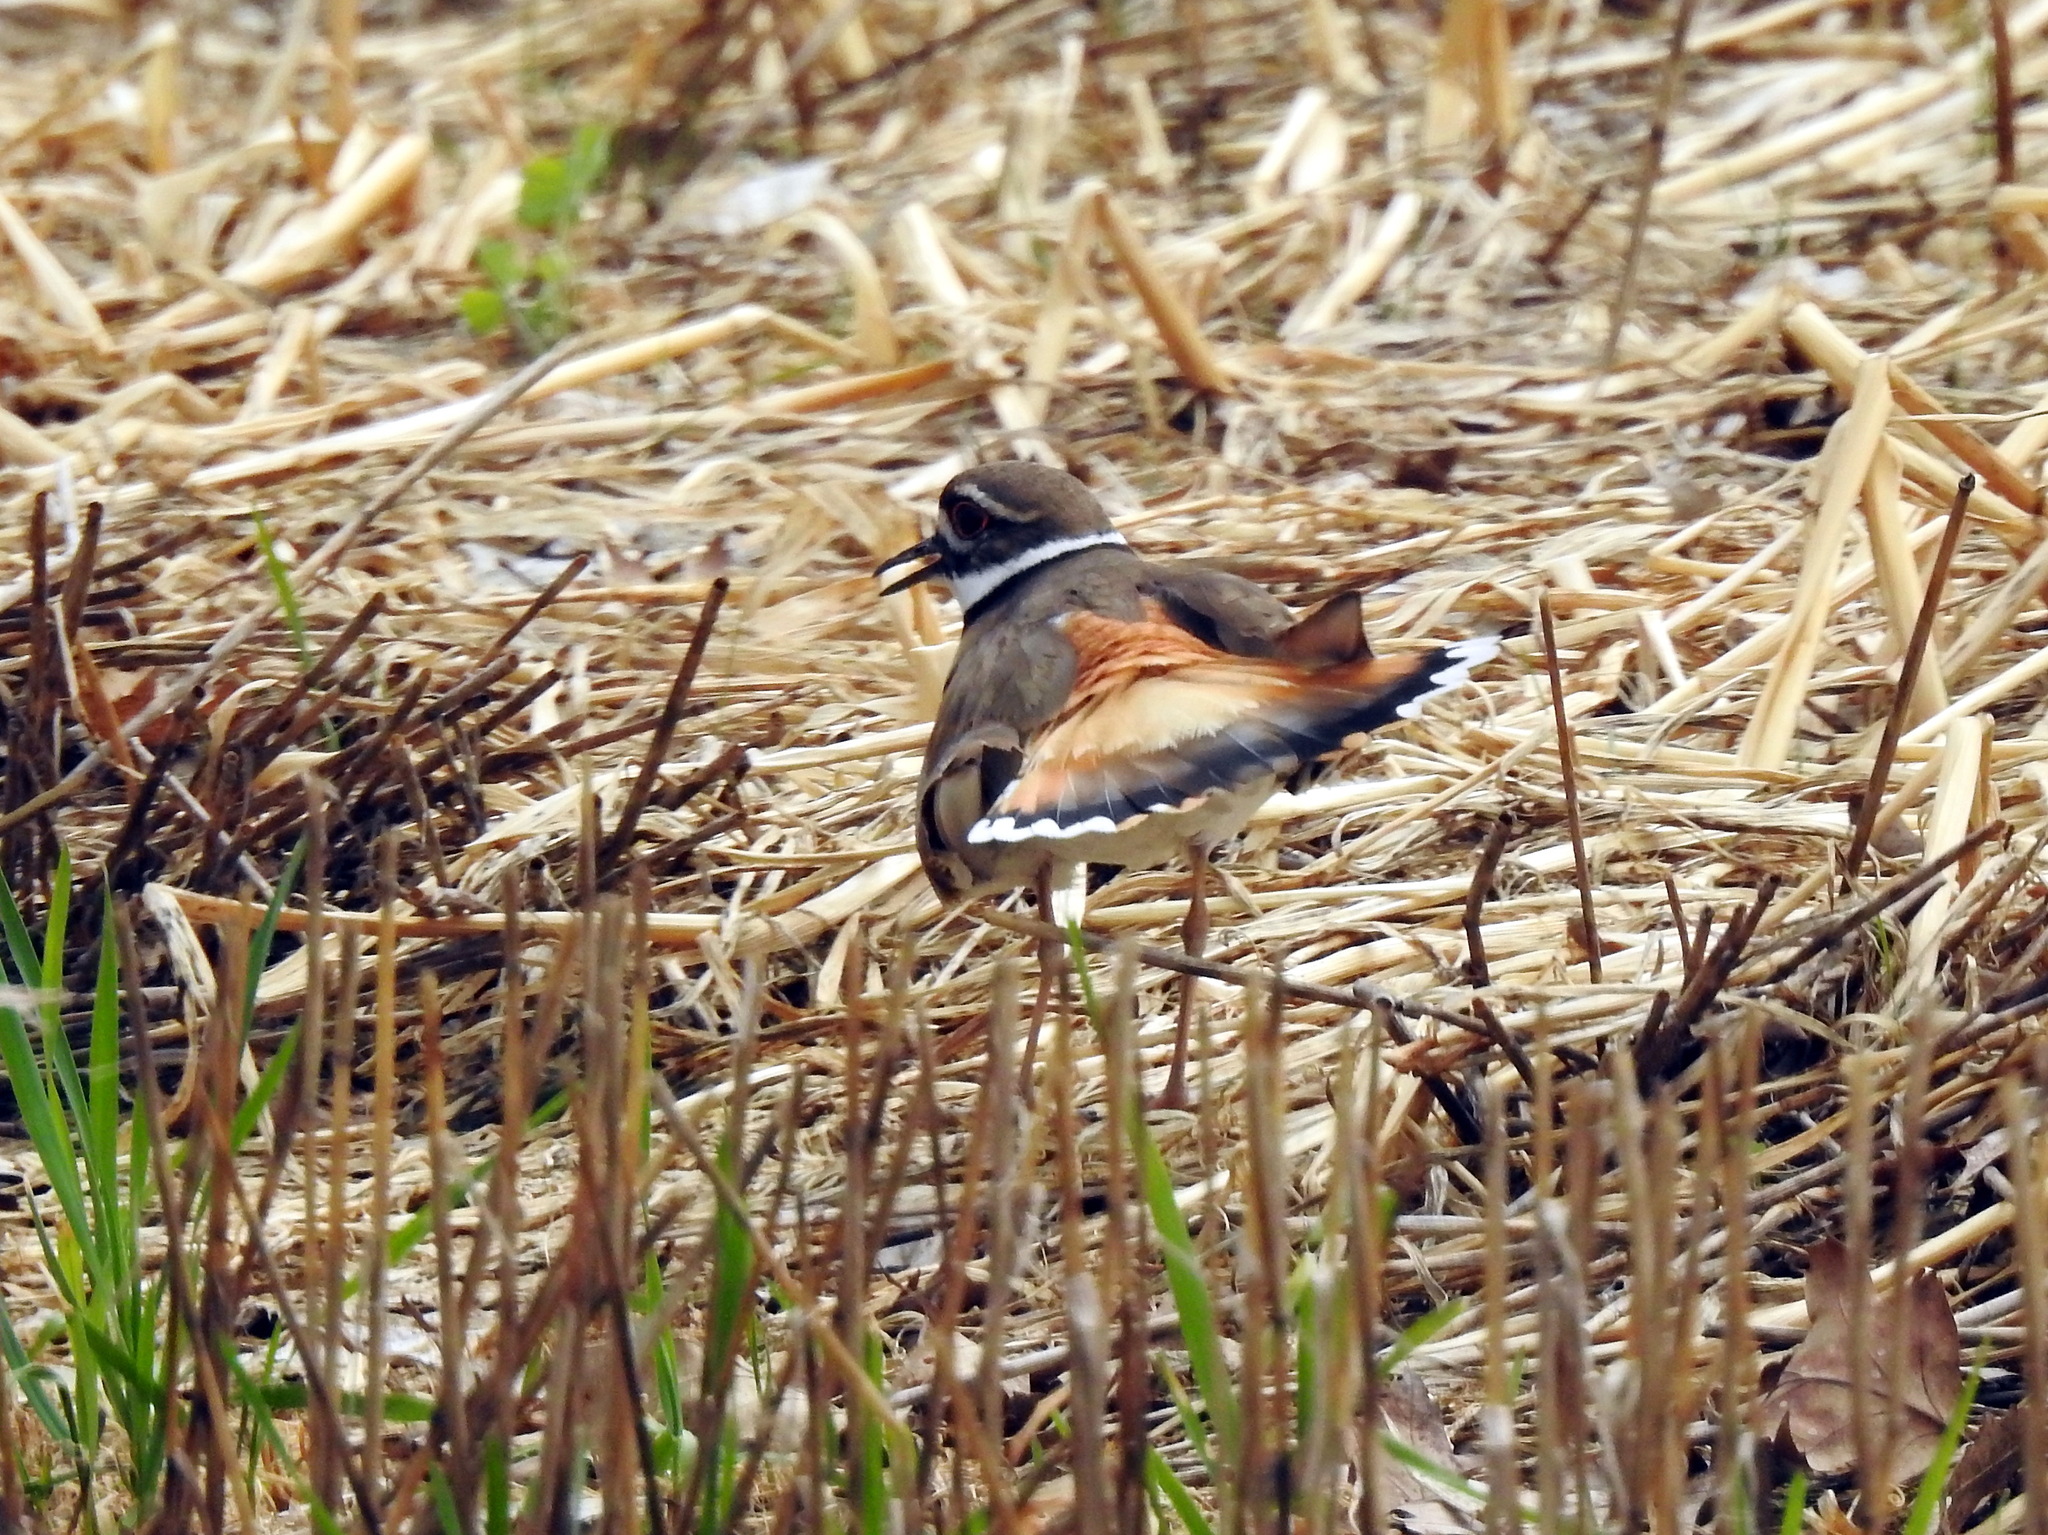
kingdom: Animalia
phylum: Chordata
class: Aves
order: Charadriiformes
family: Charadriidae
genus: Charadrius
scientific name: Charadrius vociferus
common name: Killdeer
